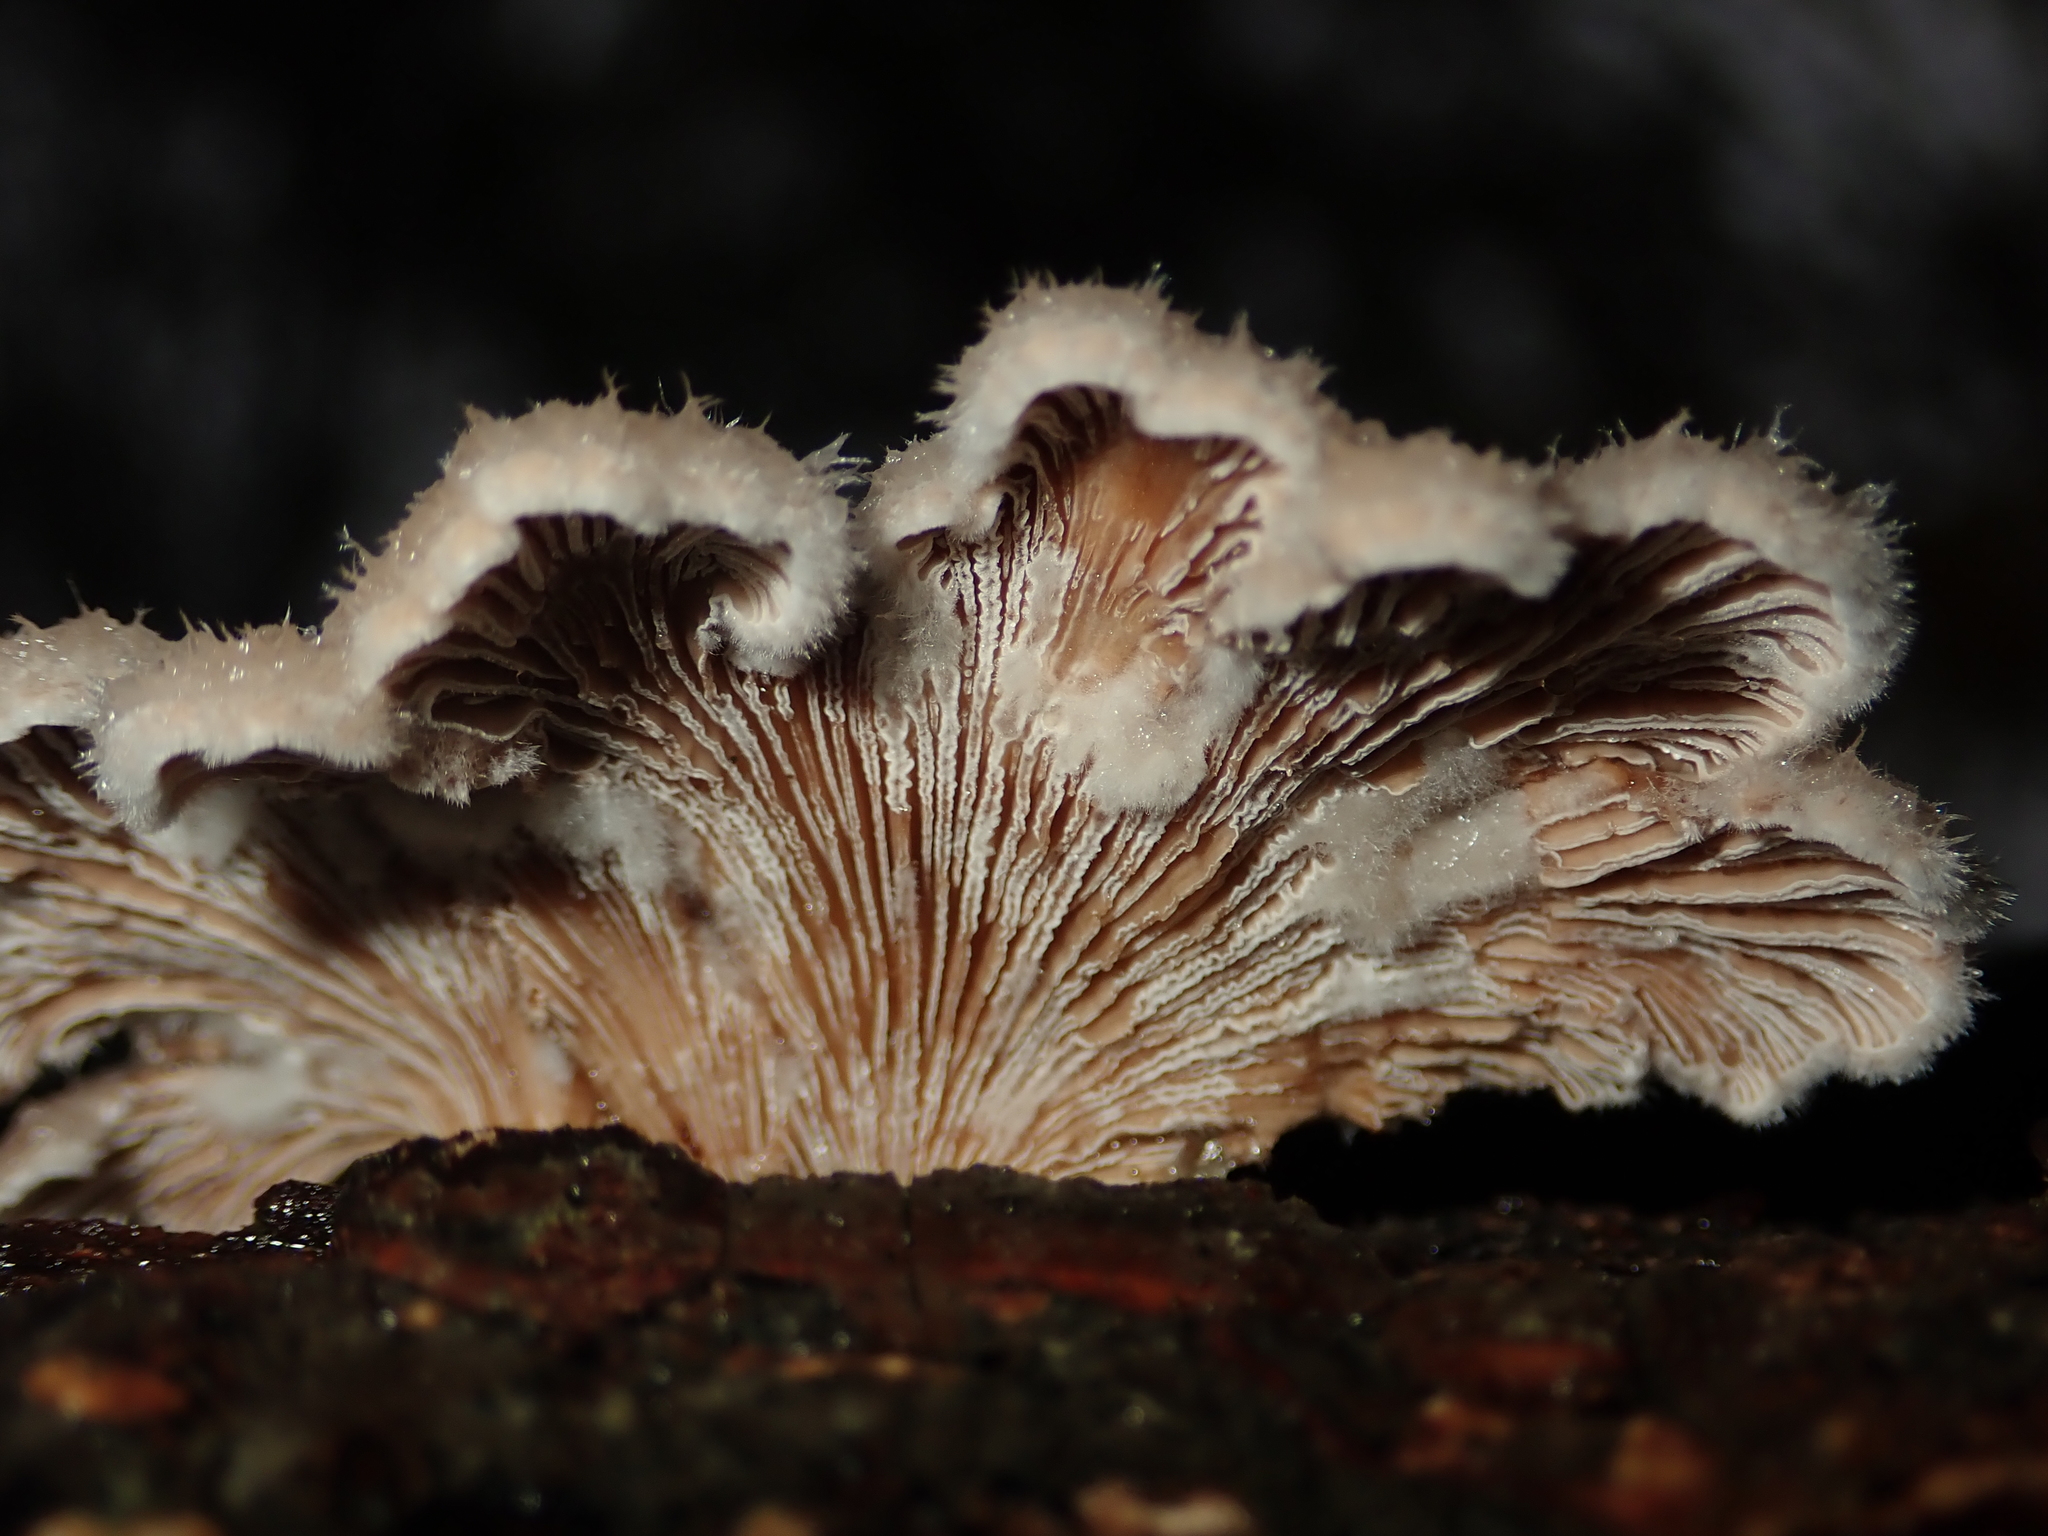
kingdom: Fungi
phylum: Basidiomycota
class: Agaricomycetes
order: Agaricales
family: Schizophyllaceae
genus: Schizophyllum
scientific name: Schizophyllum commune
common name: Common porecrust
